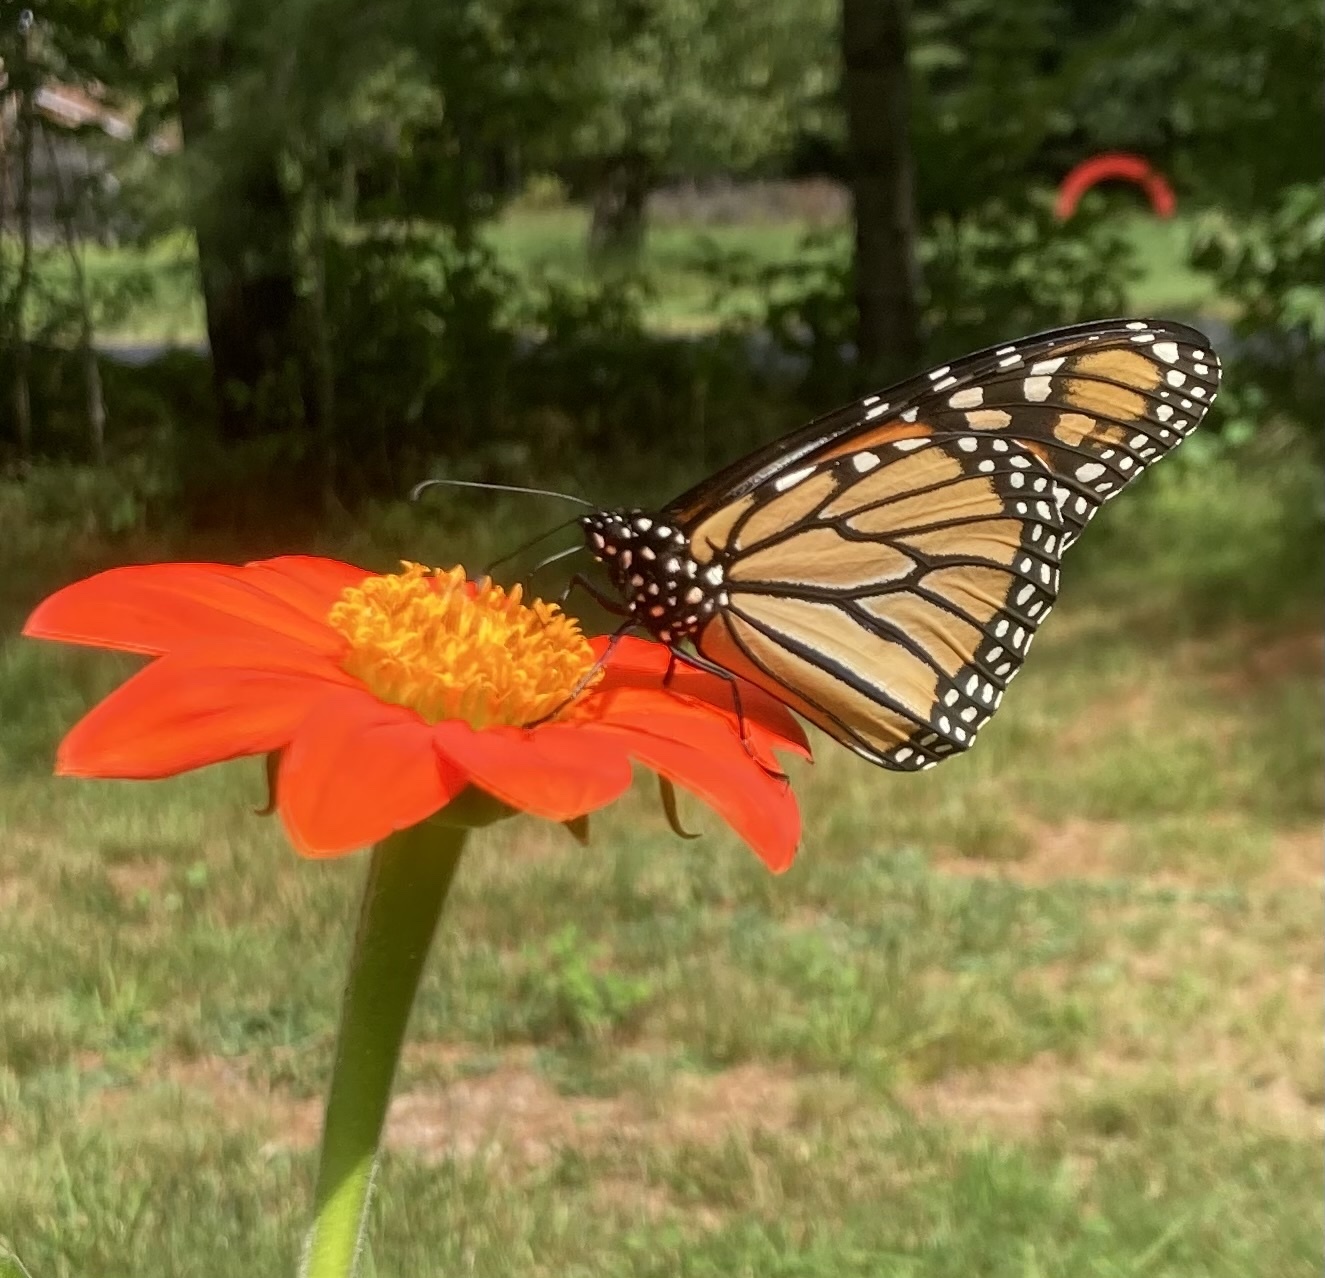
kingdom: Animalia
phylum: Arthropoda
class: Insecta
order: Lepidoptera
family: Nymphalidae
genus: Danaus
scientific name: Danaus plexippus
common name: Monarch
